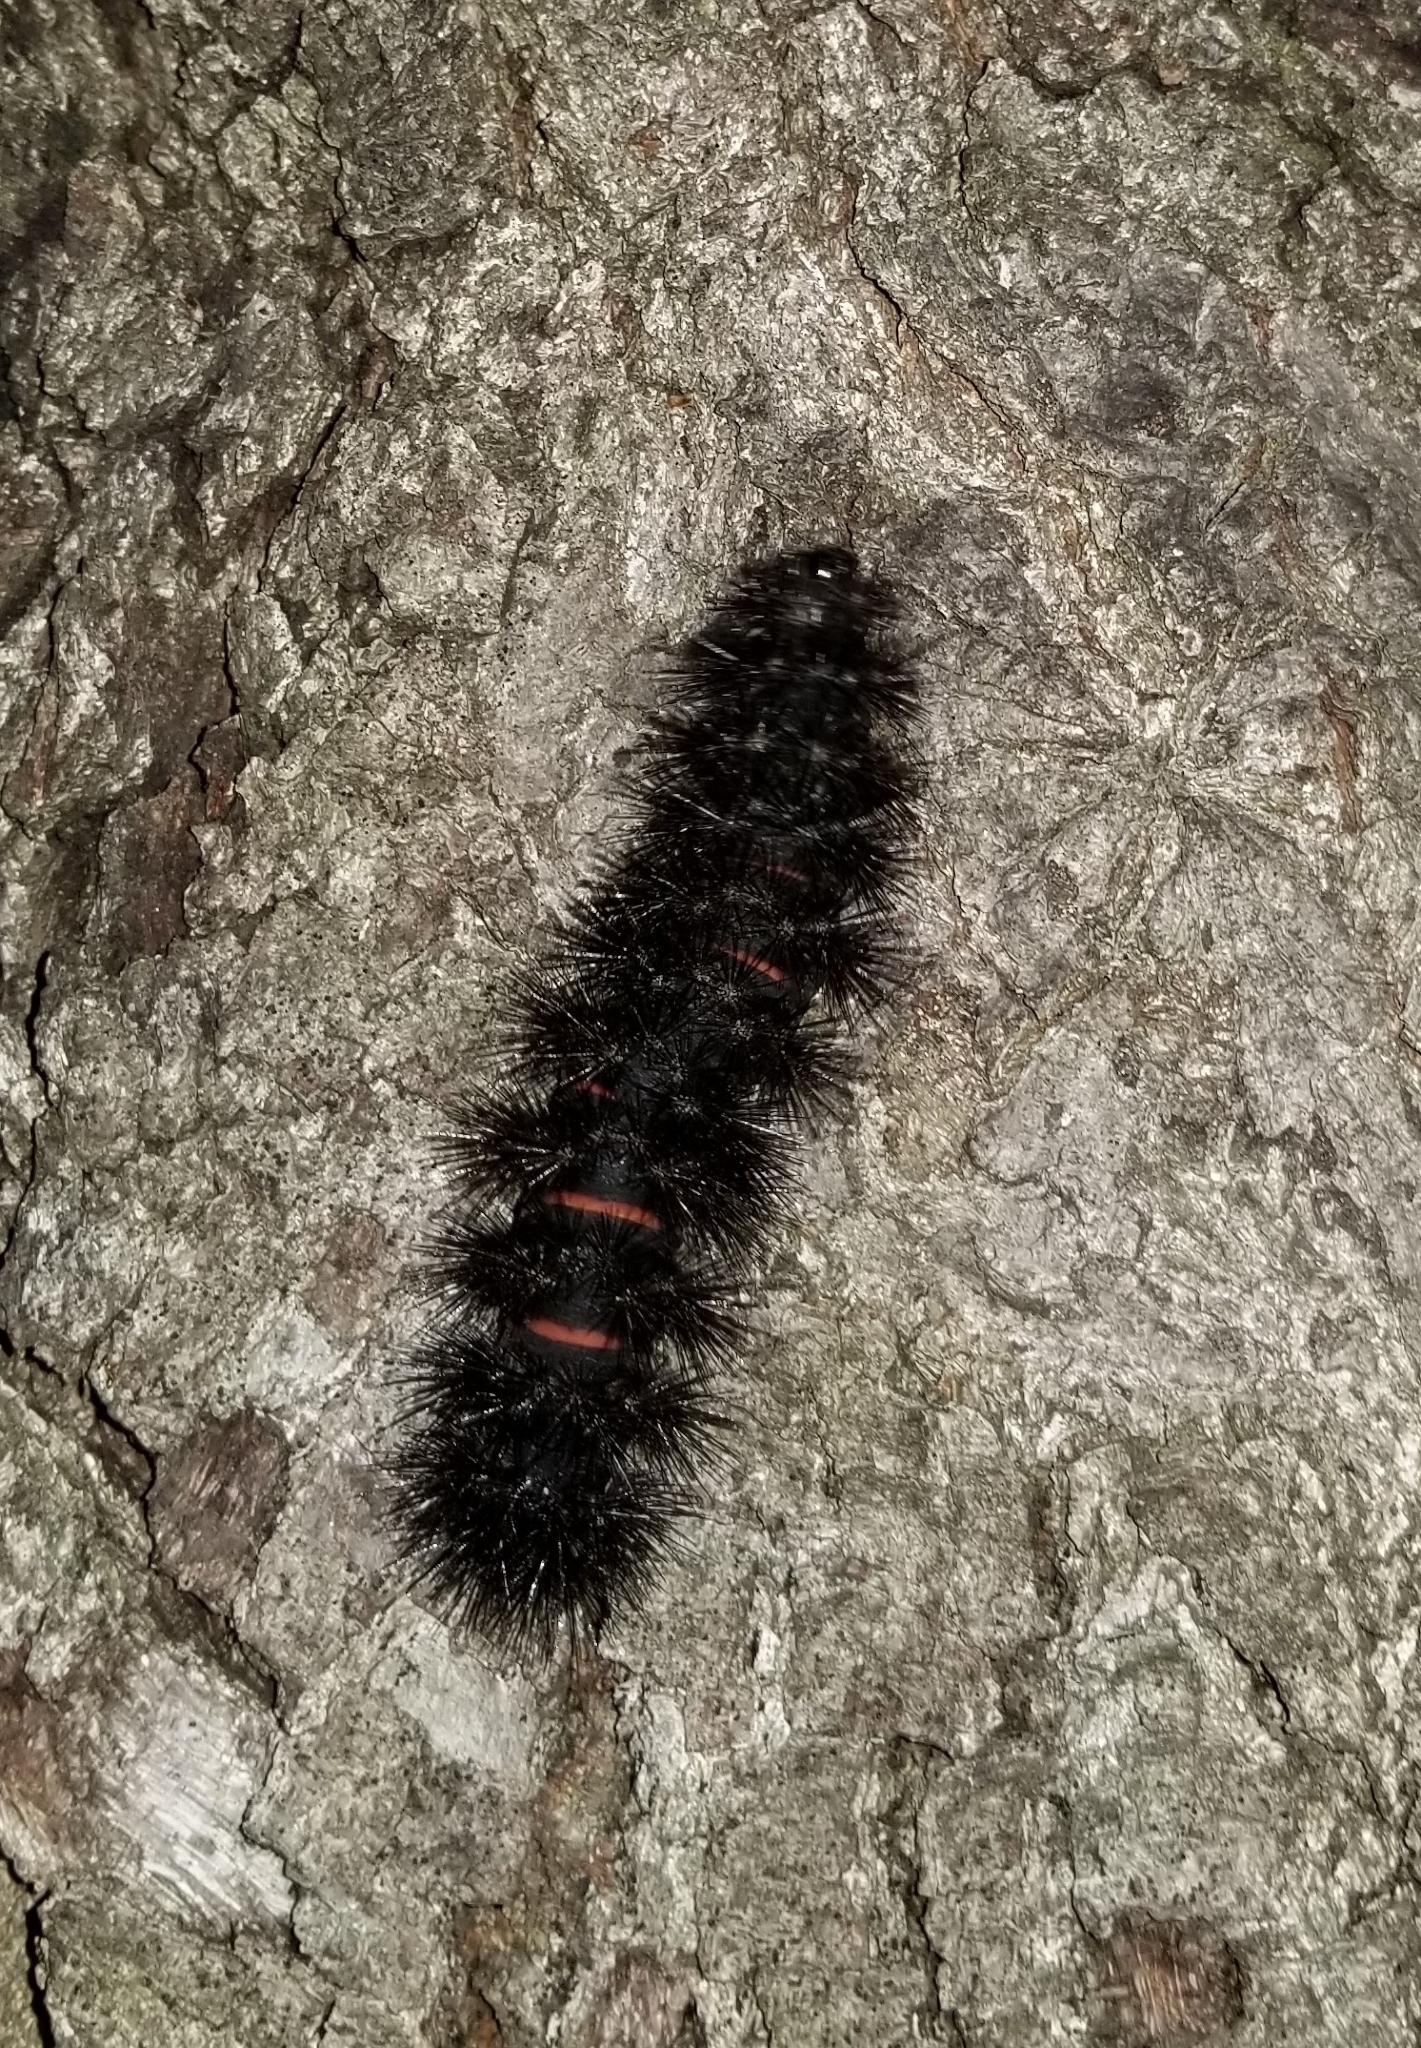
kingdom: Animalia
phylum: Arthropoda
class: Insecta
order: Lepidoptera
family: Erebidae
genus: Hypercompe
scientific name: Hypercompe scribonia
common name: Giant leopard moth
